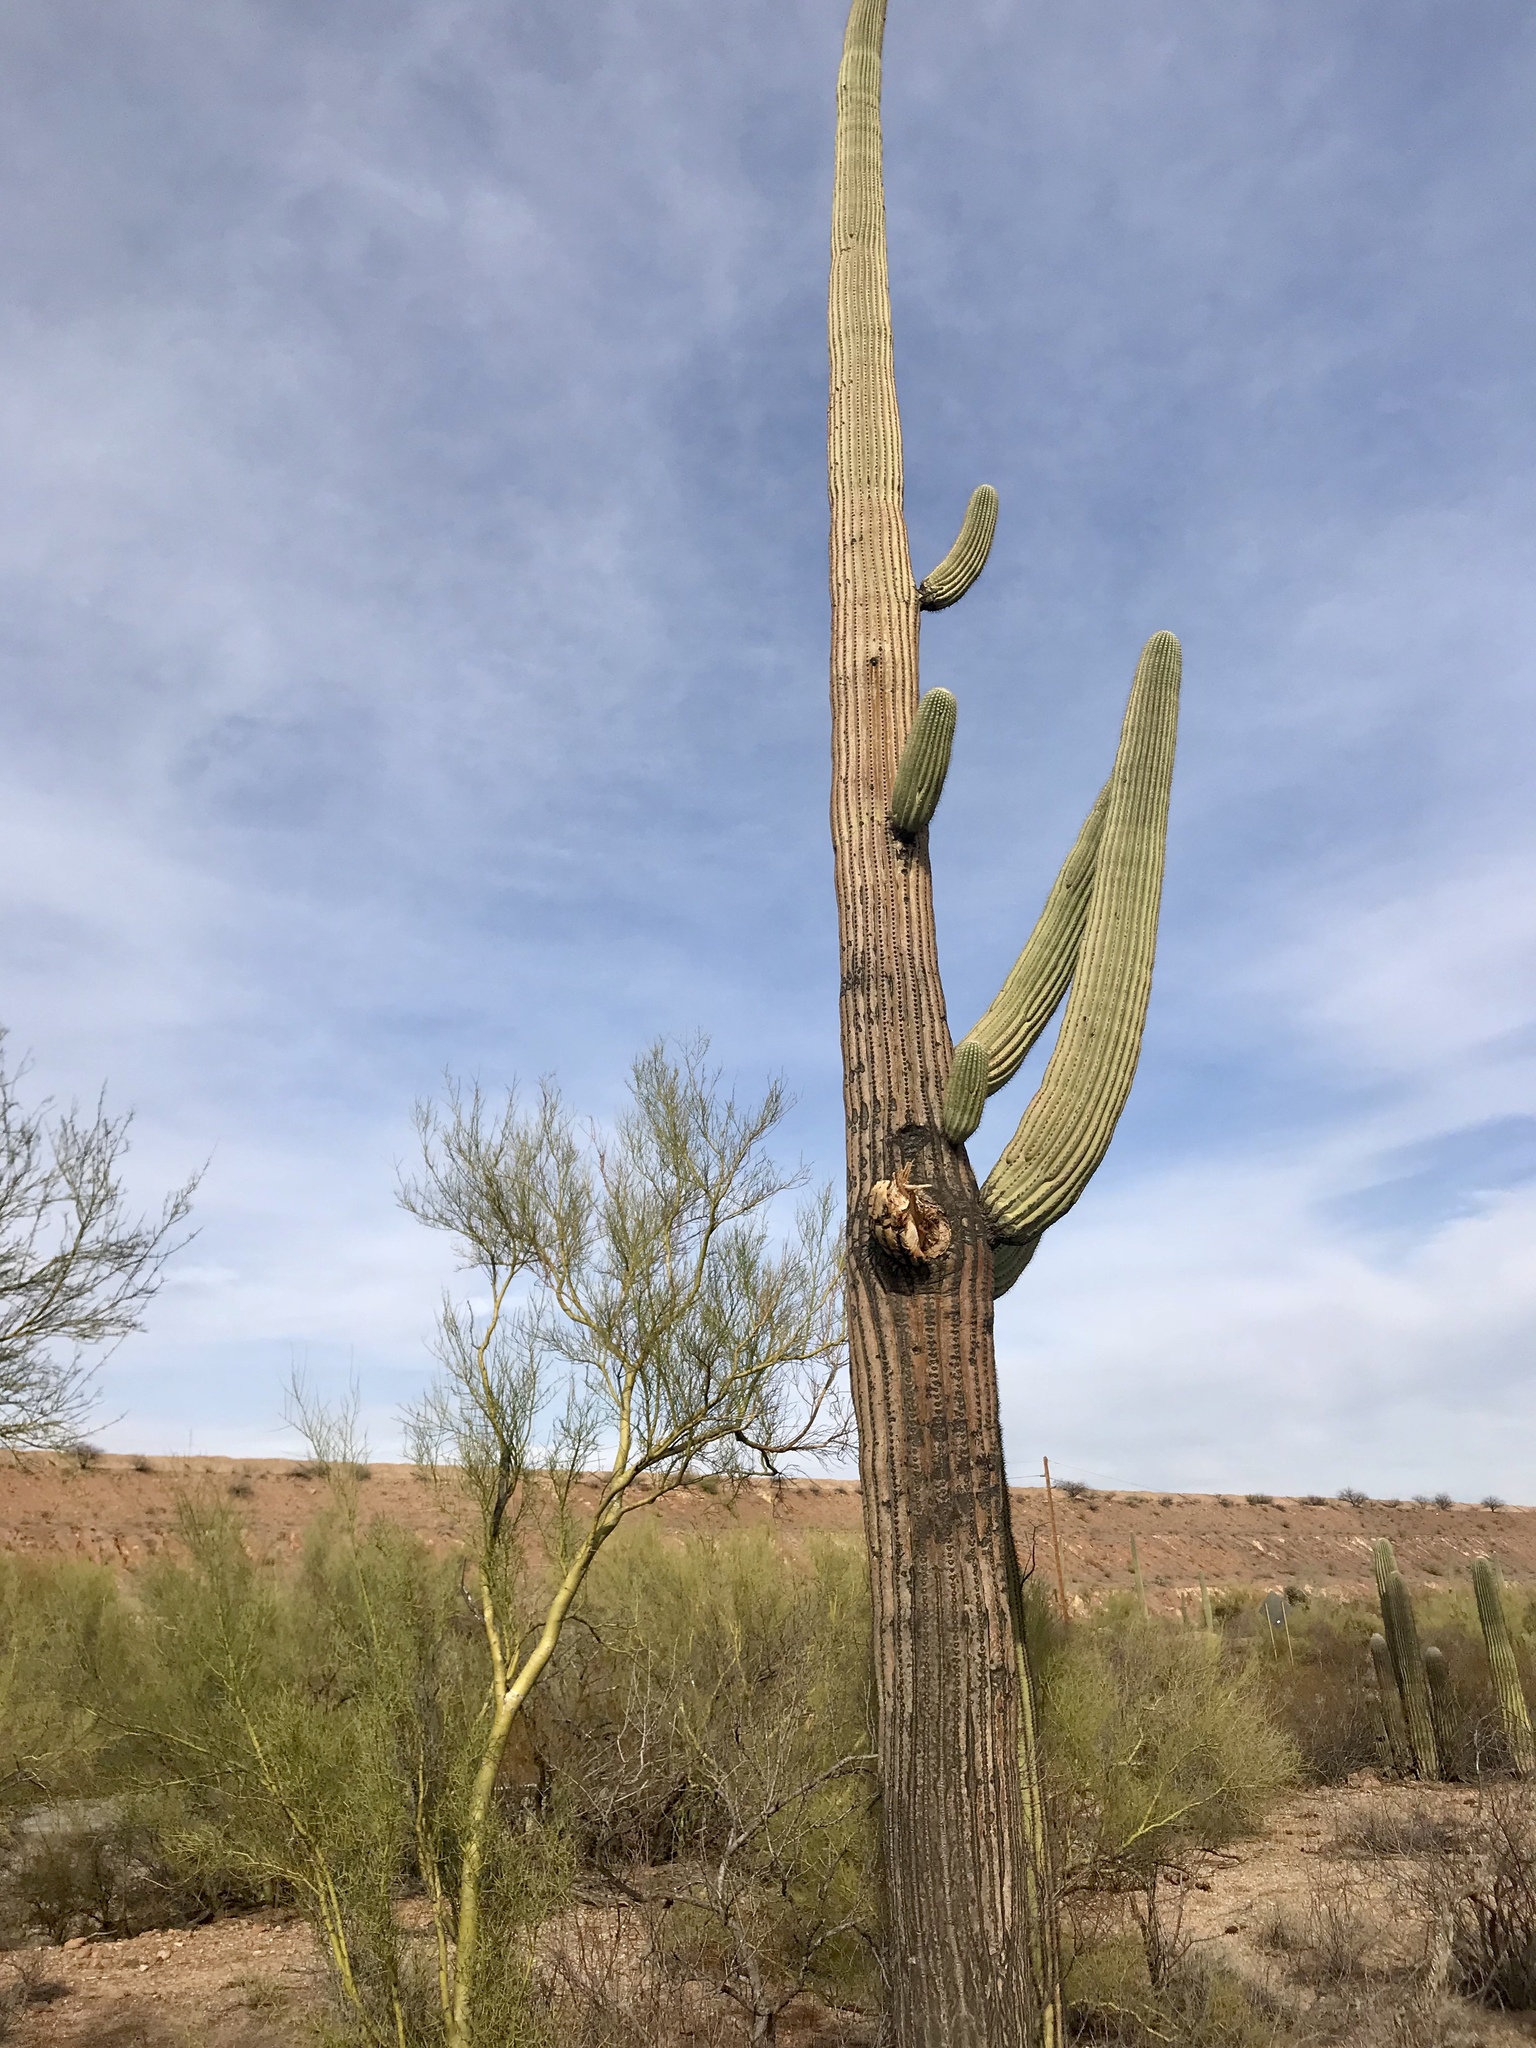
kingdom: Plantae
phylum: Tracheophyta
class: Magnoliopsida
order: Caryophyllales
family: Cactaceae
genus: Carnegiea
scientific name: Carnegiea gigantea
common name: Saguaro
